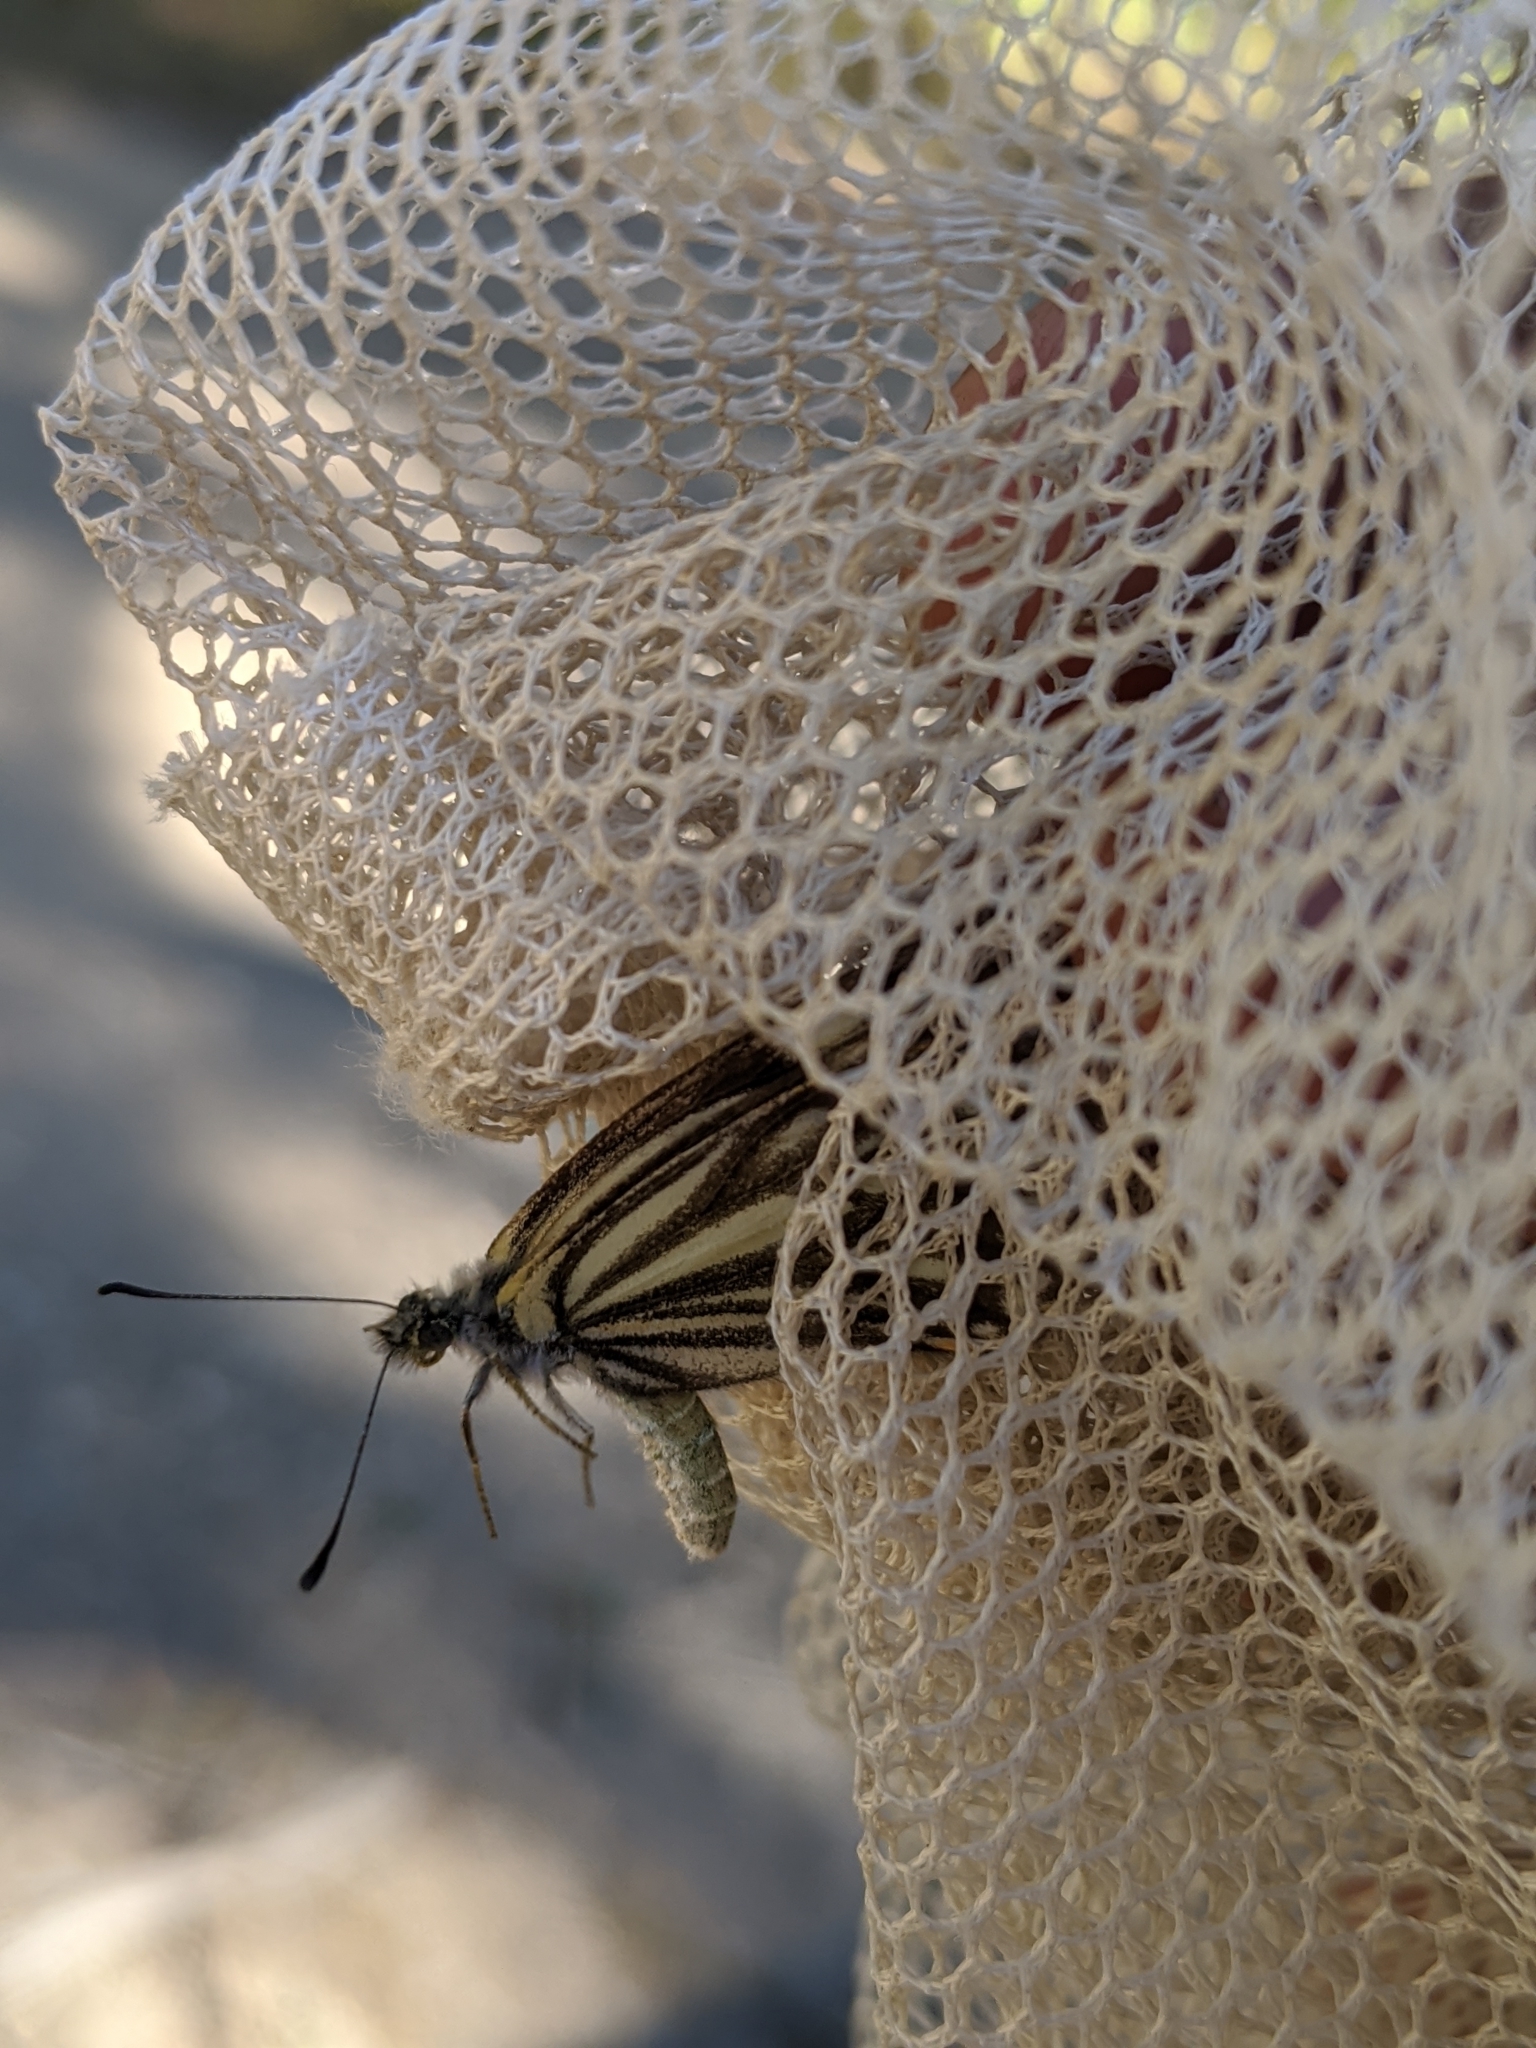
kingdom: Animalia
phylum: Arthropoda
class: Insecta
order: Lepidoptera
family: Pieridae
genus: Neophasia
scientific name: Neophasia menapia
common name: Pine white
